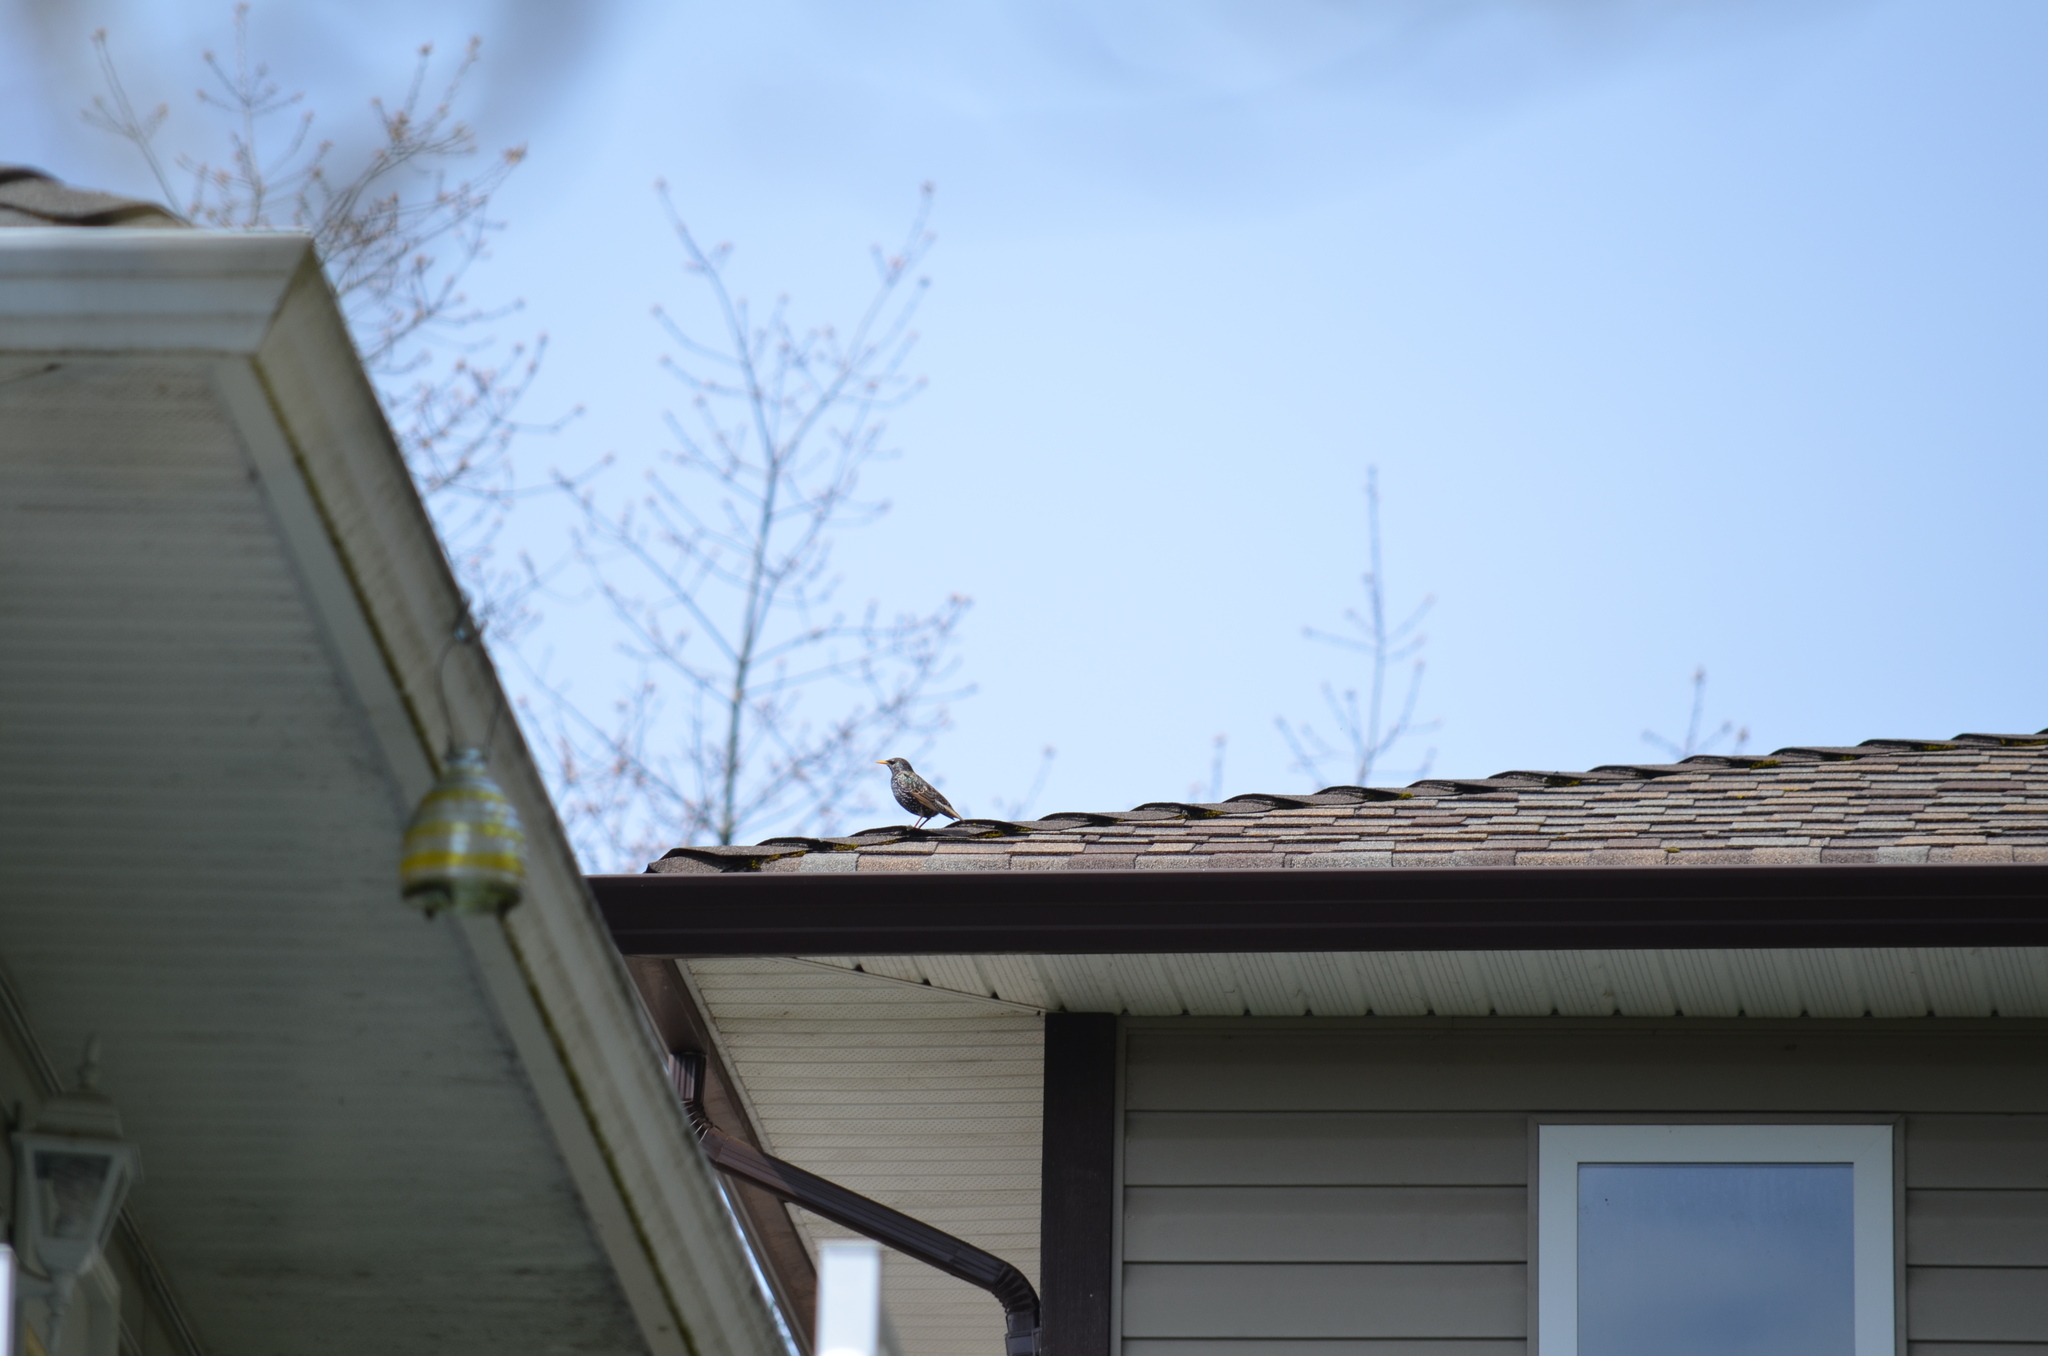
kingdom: Animalia
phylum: Chordata
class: Aves
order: Passeriformes
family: Sturnidae
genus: Sturnus
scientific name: Sturnus vulgaris
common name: Common starling
